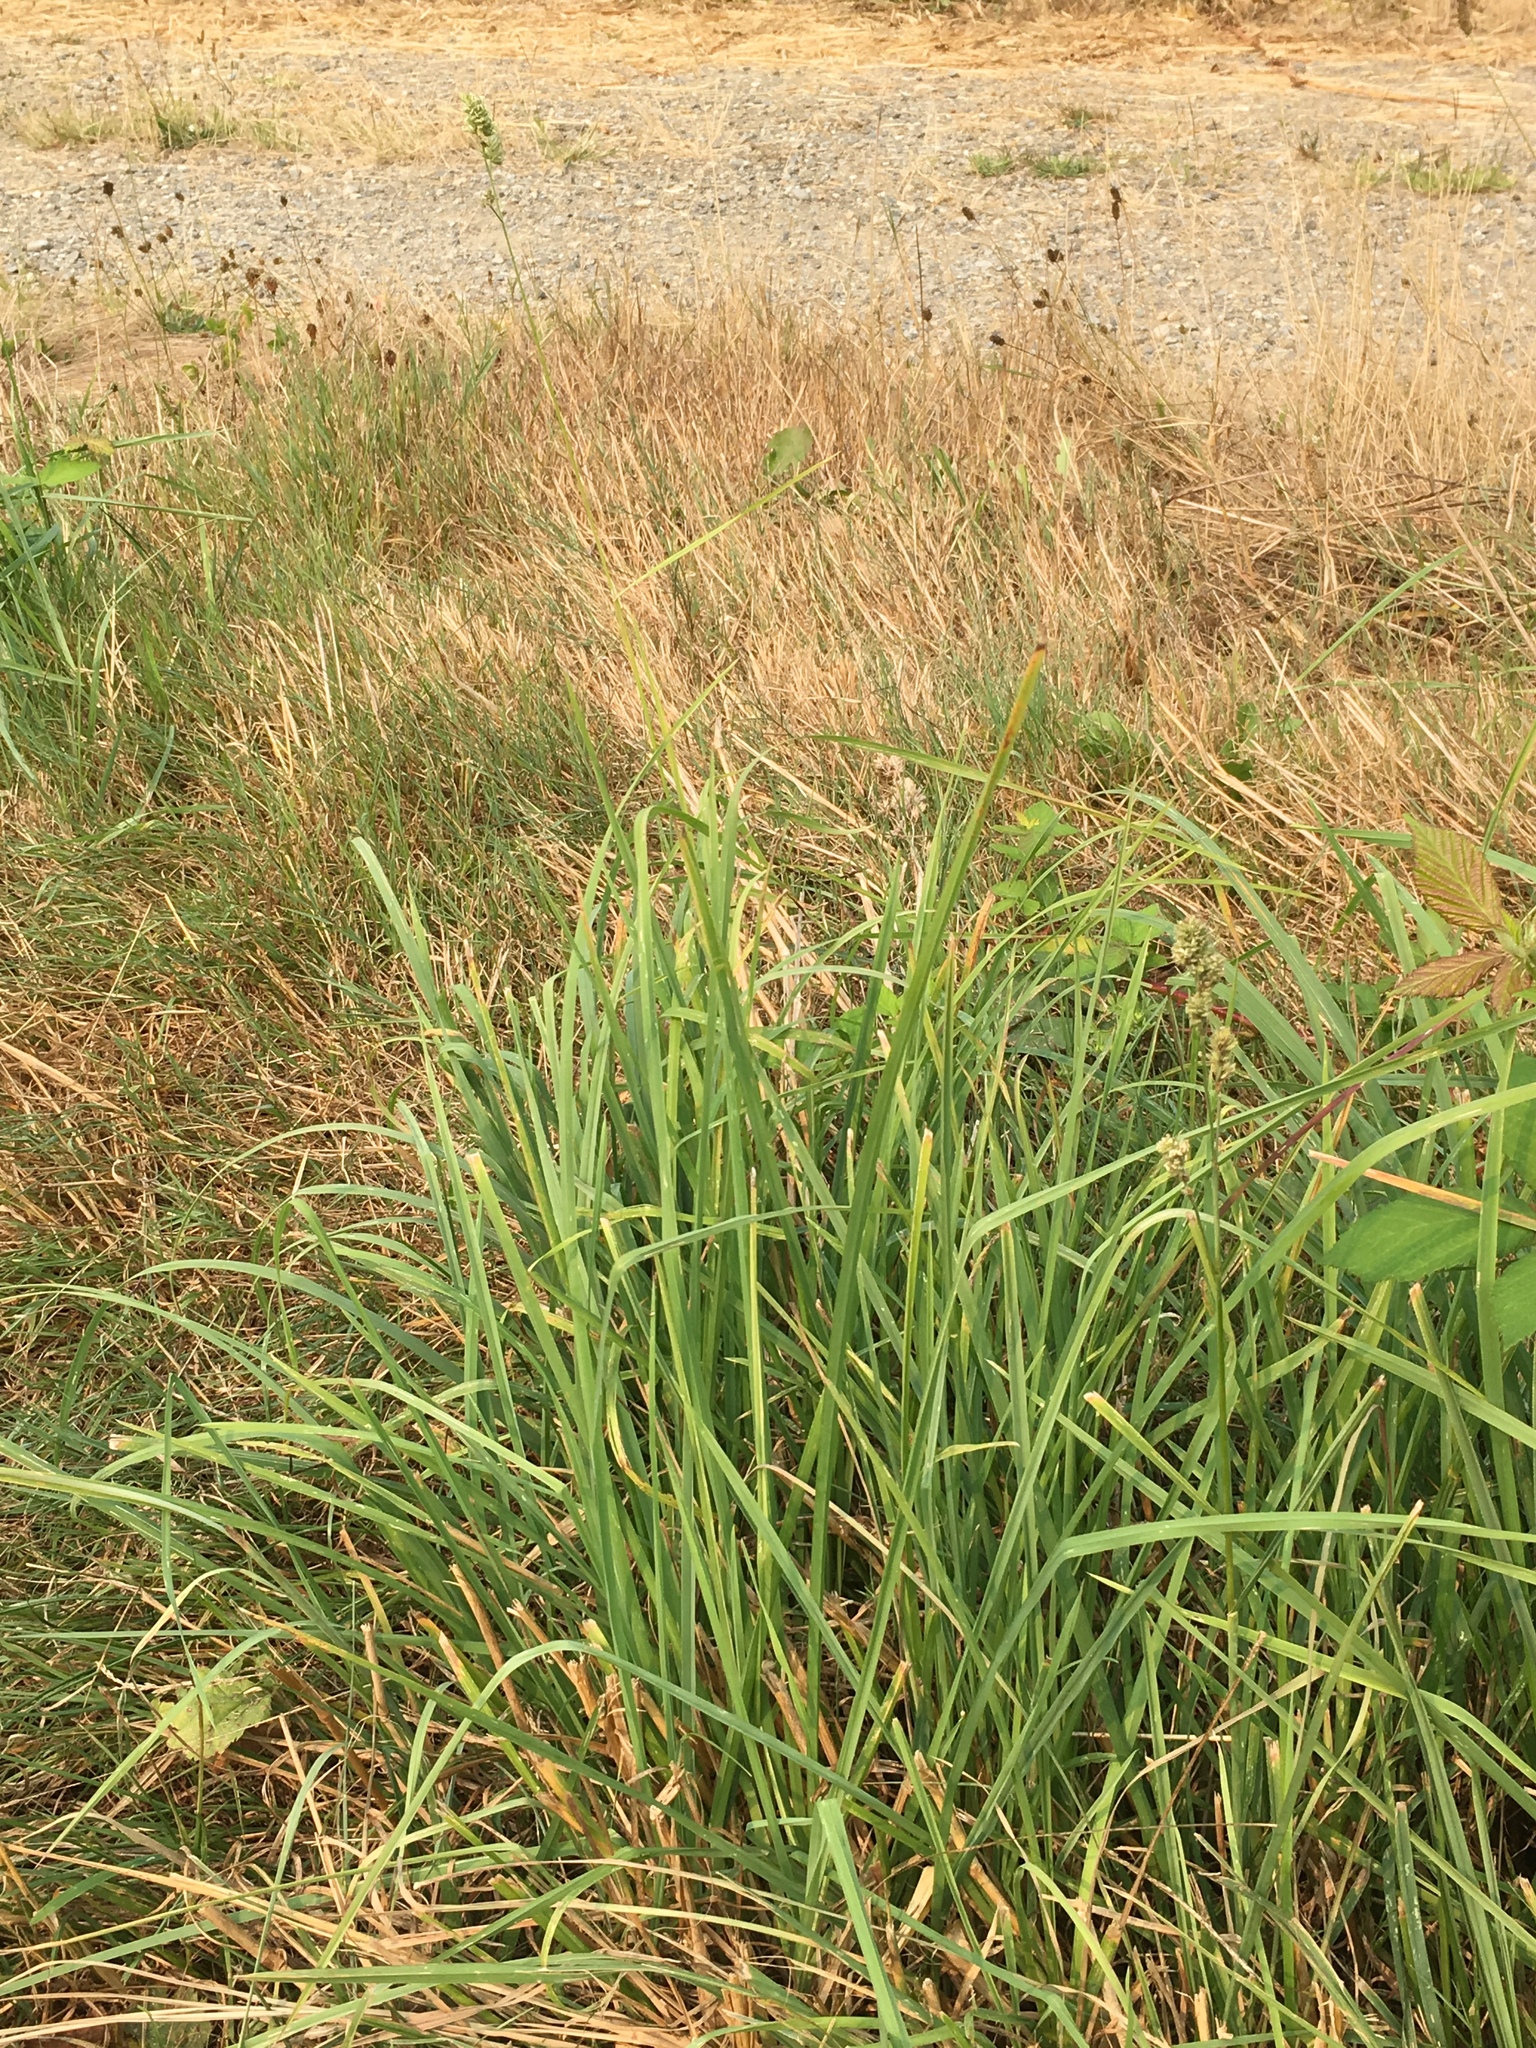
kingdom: Plantae
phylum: Tracheophyta
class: Liliopsida
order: Poales
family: Poaceae
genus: Dactylis
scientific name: Dactylis glomerata
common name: Orchardgrass
